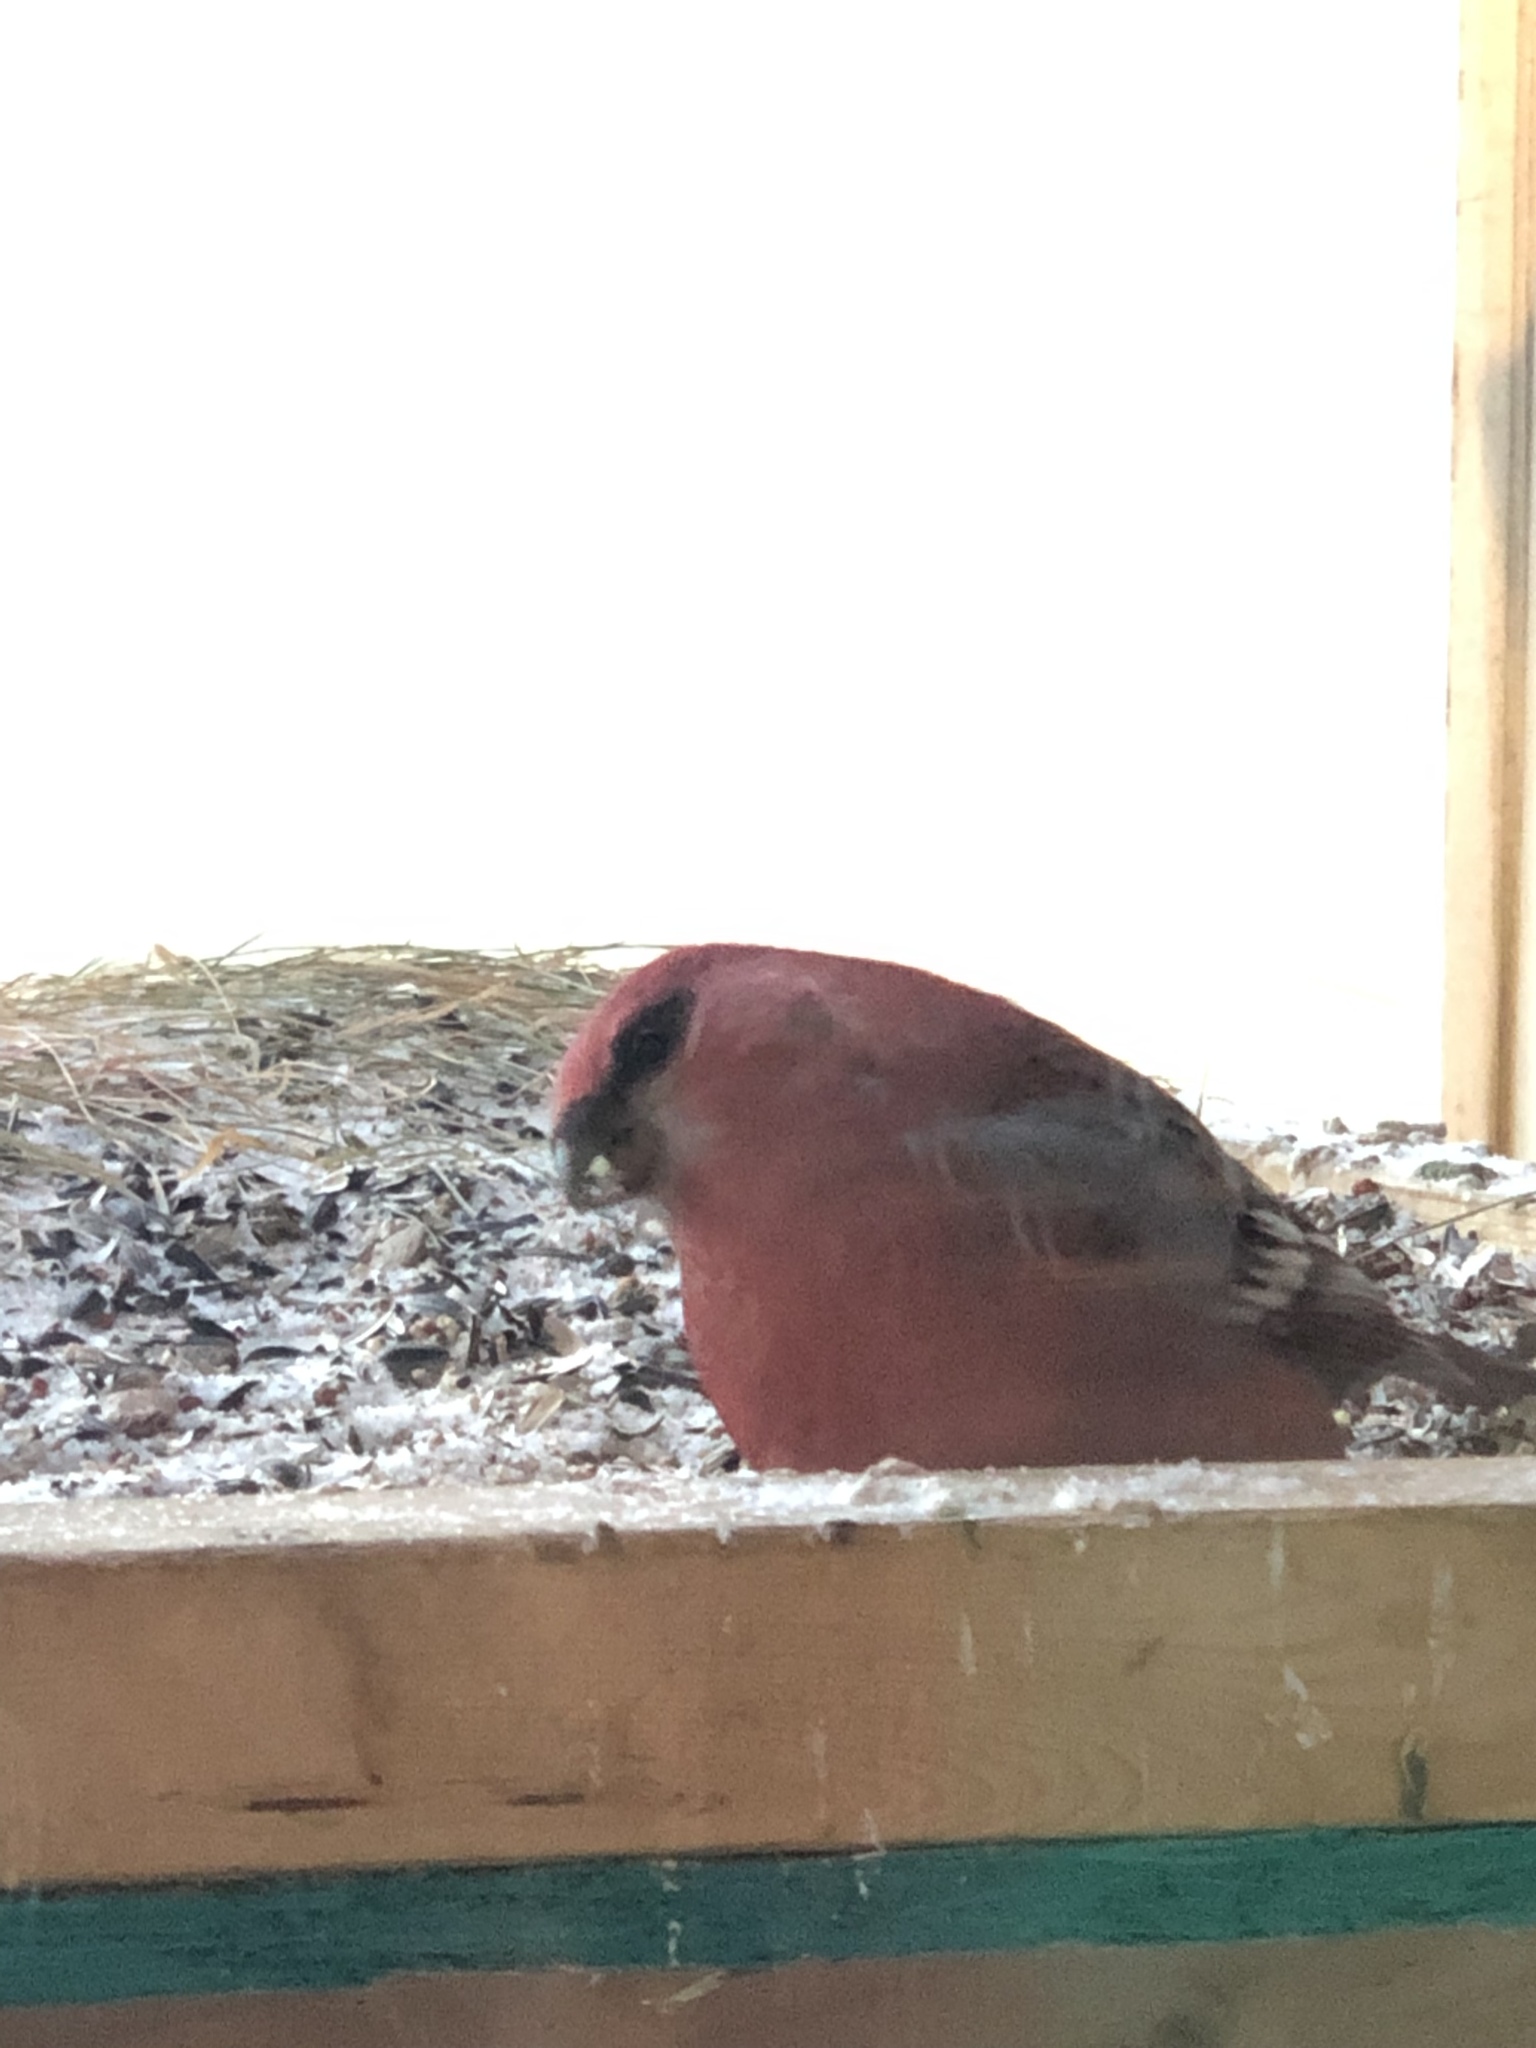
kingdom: Animalia
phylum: Chordata
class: Aves
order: Passeriformes
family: Fringillidae
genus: Pinicola
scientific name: Pinicola enucleator
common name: Pine grosbeak
